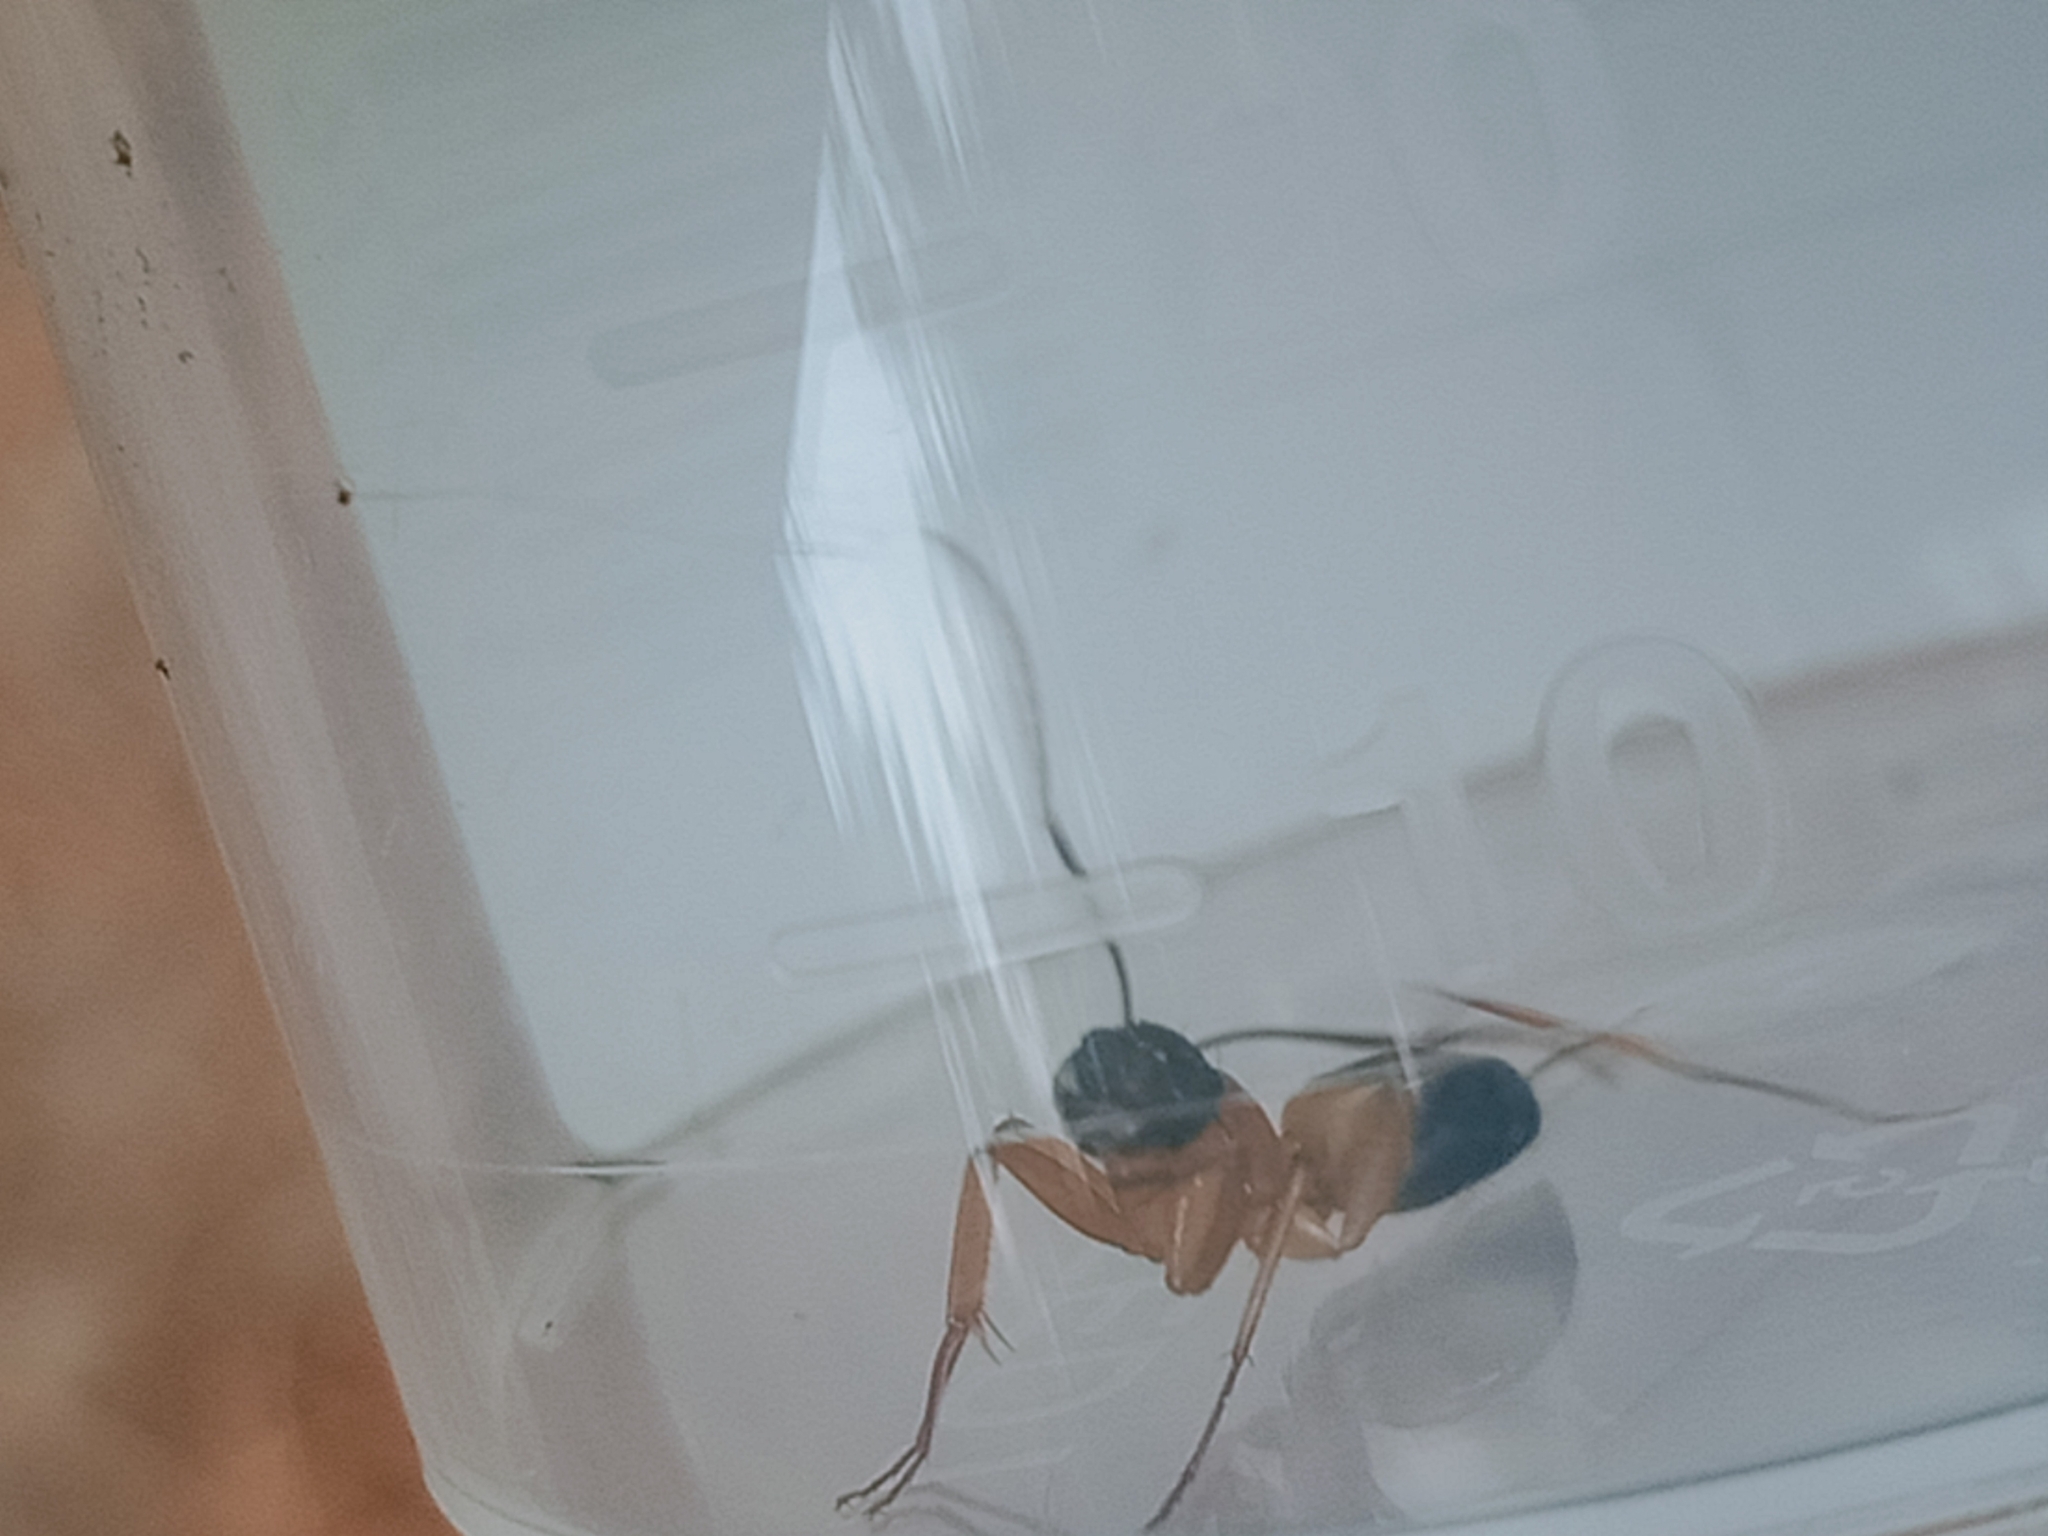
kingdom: Animalia
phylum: Arthropoda
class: Insecta
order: Hymenoptera
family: Formicidae
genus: Camponotus
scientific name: Camponotus consobrinus
